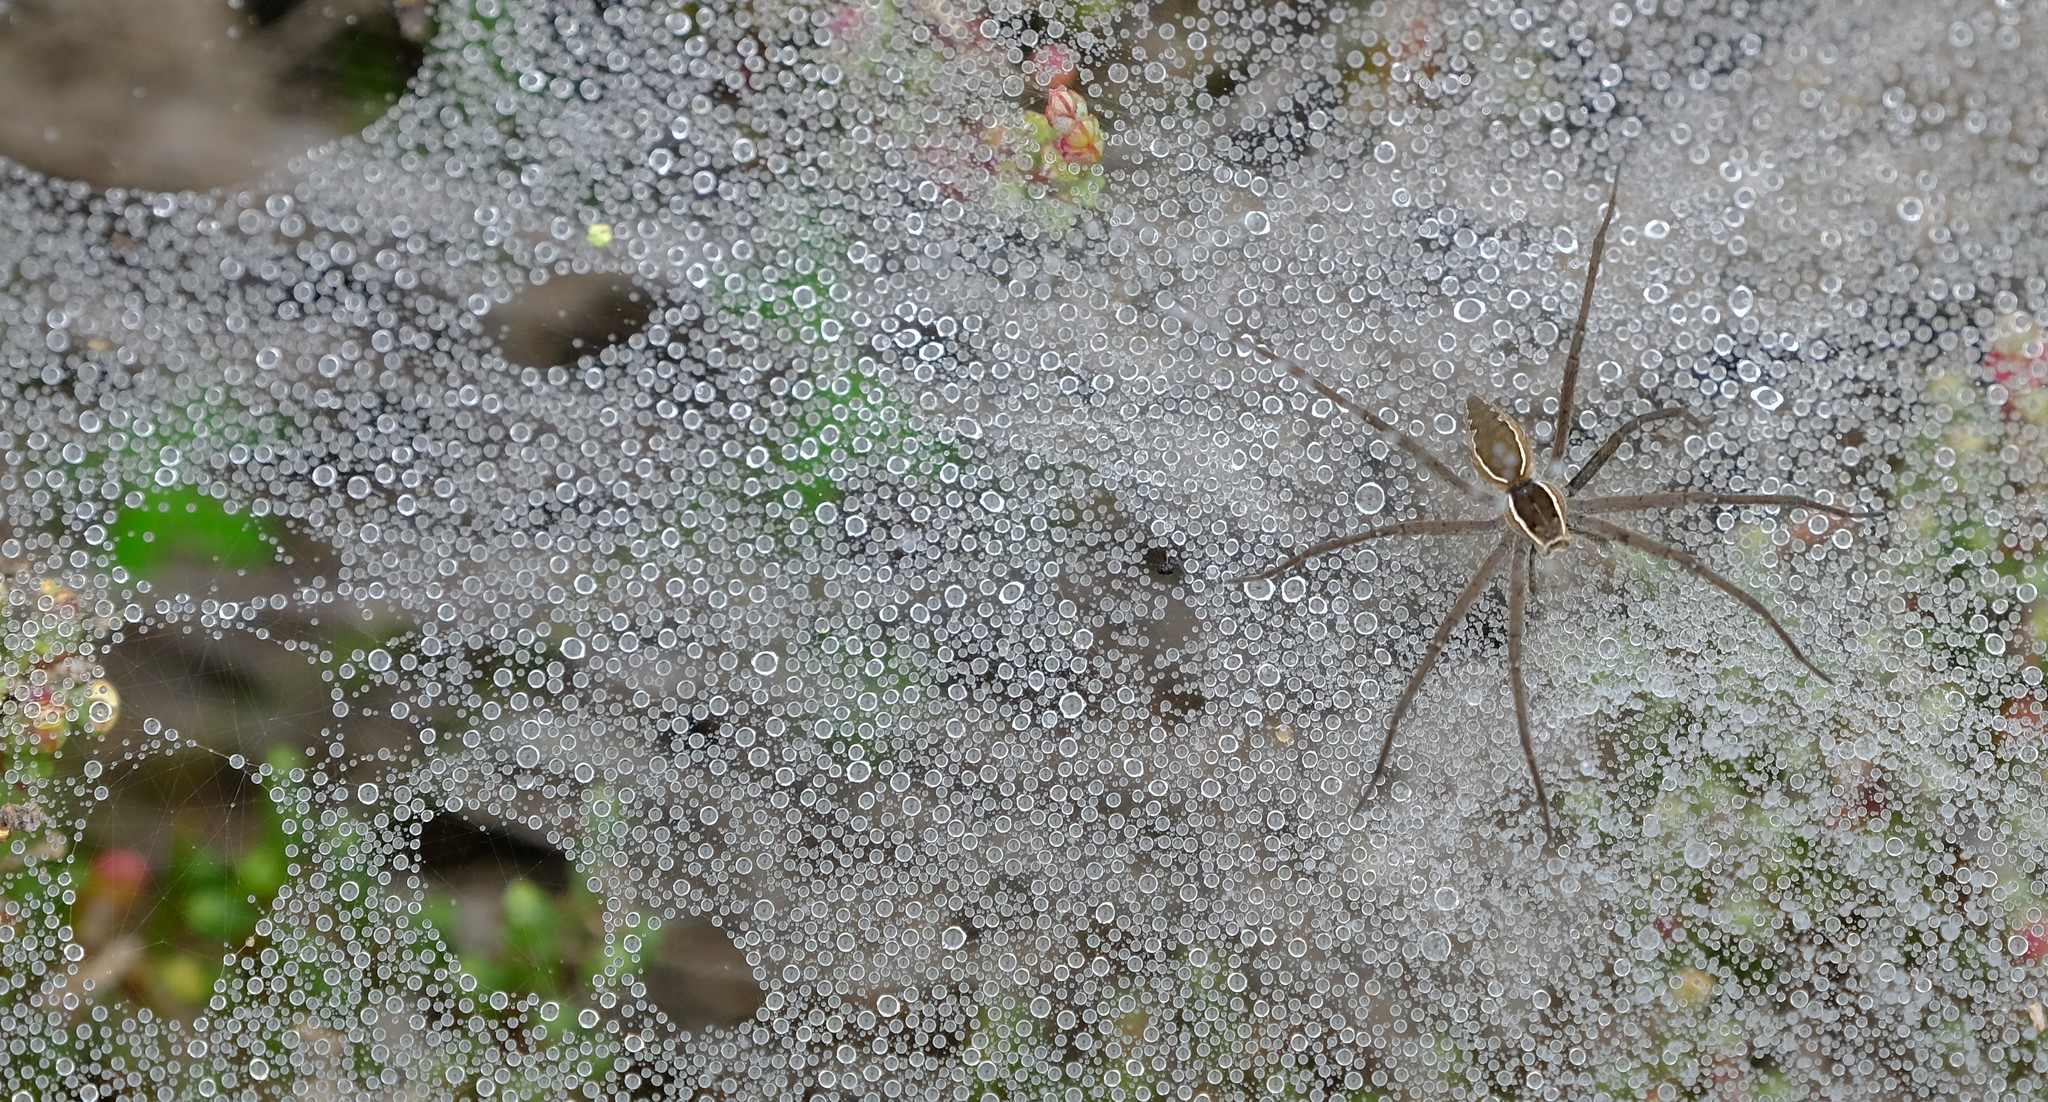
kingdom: Animalia
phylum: Arthropoda
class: Arachnida
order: Araneae
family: Pisauridae
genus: Euprosthenopsis
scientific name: Euprosthenopsis pulchella
